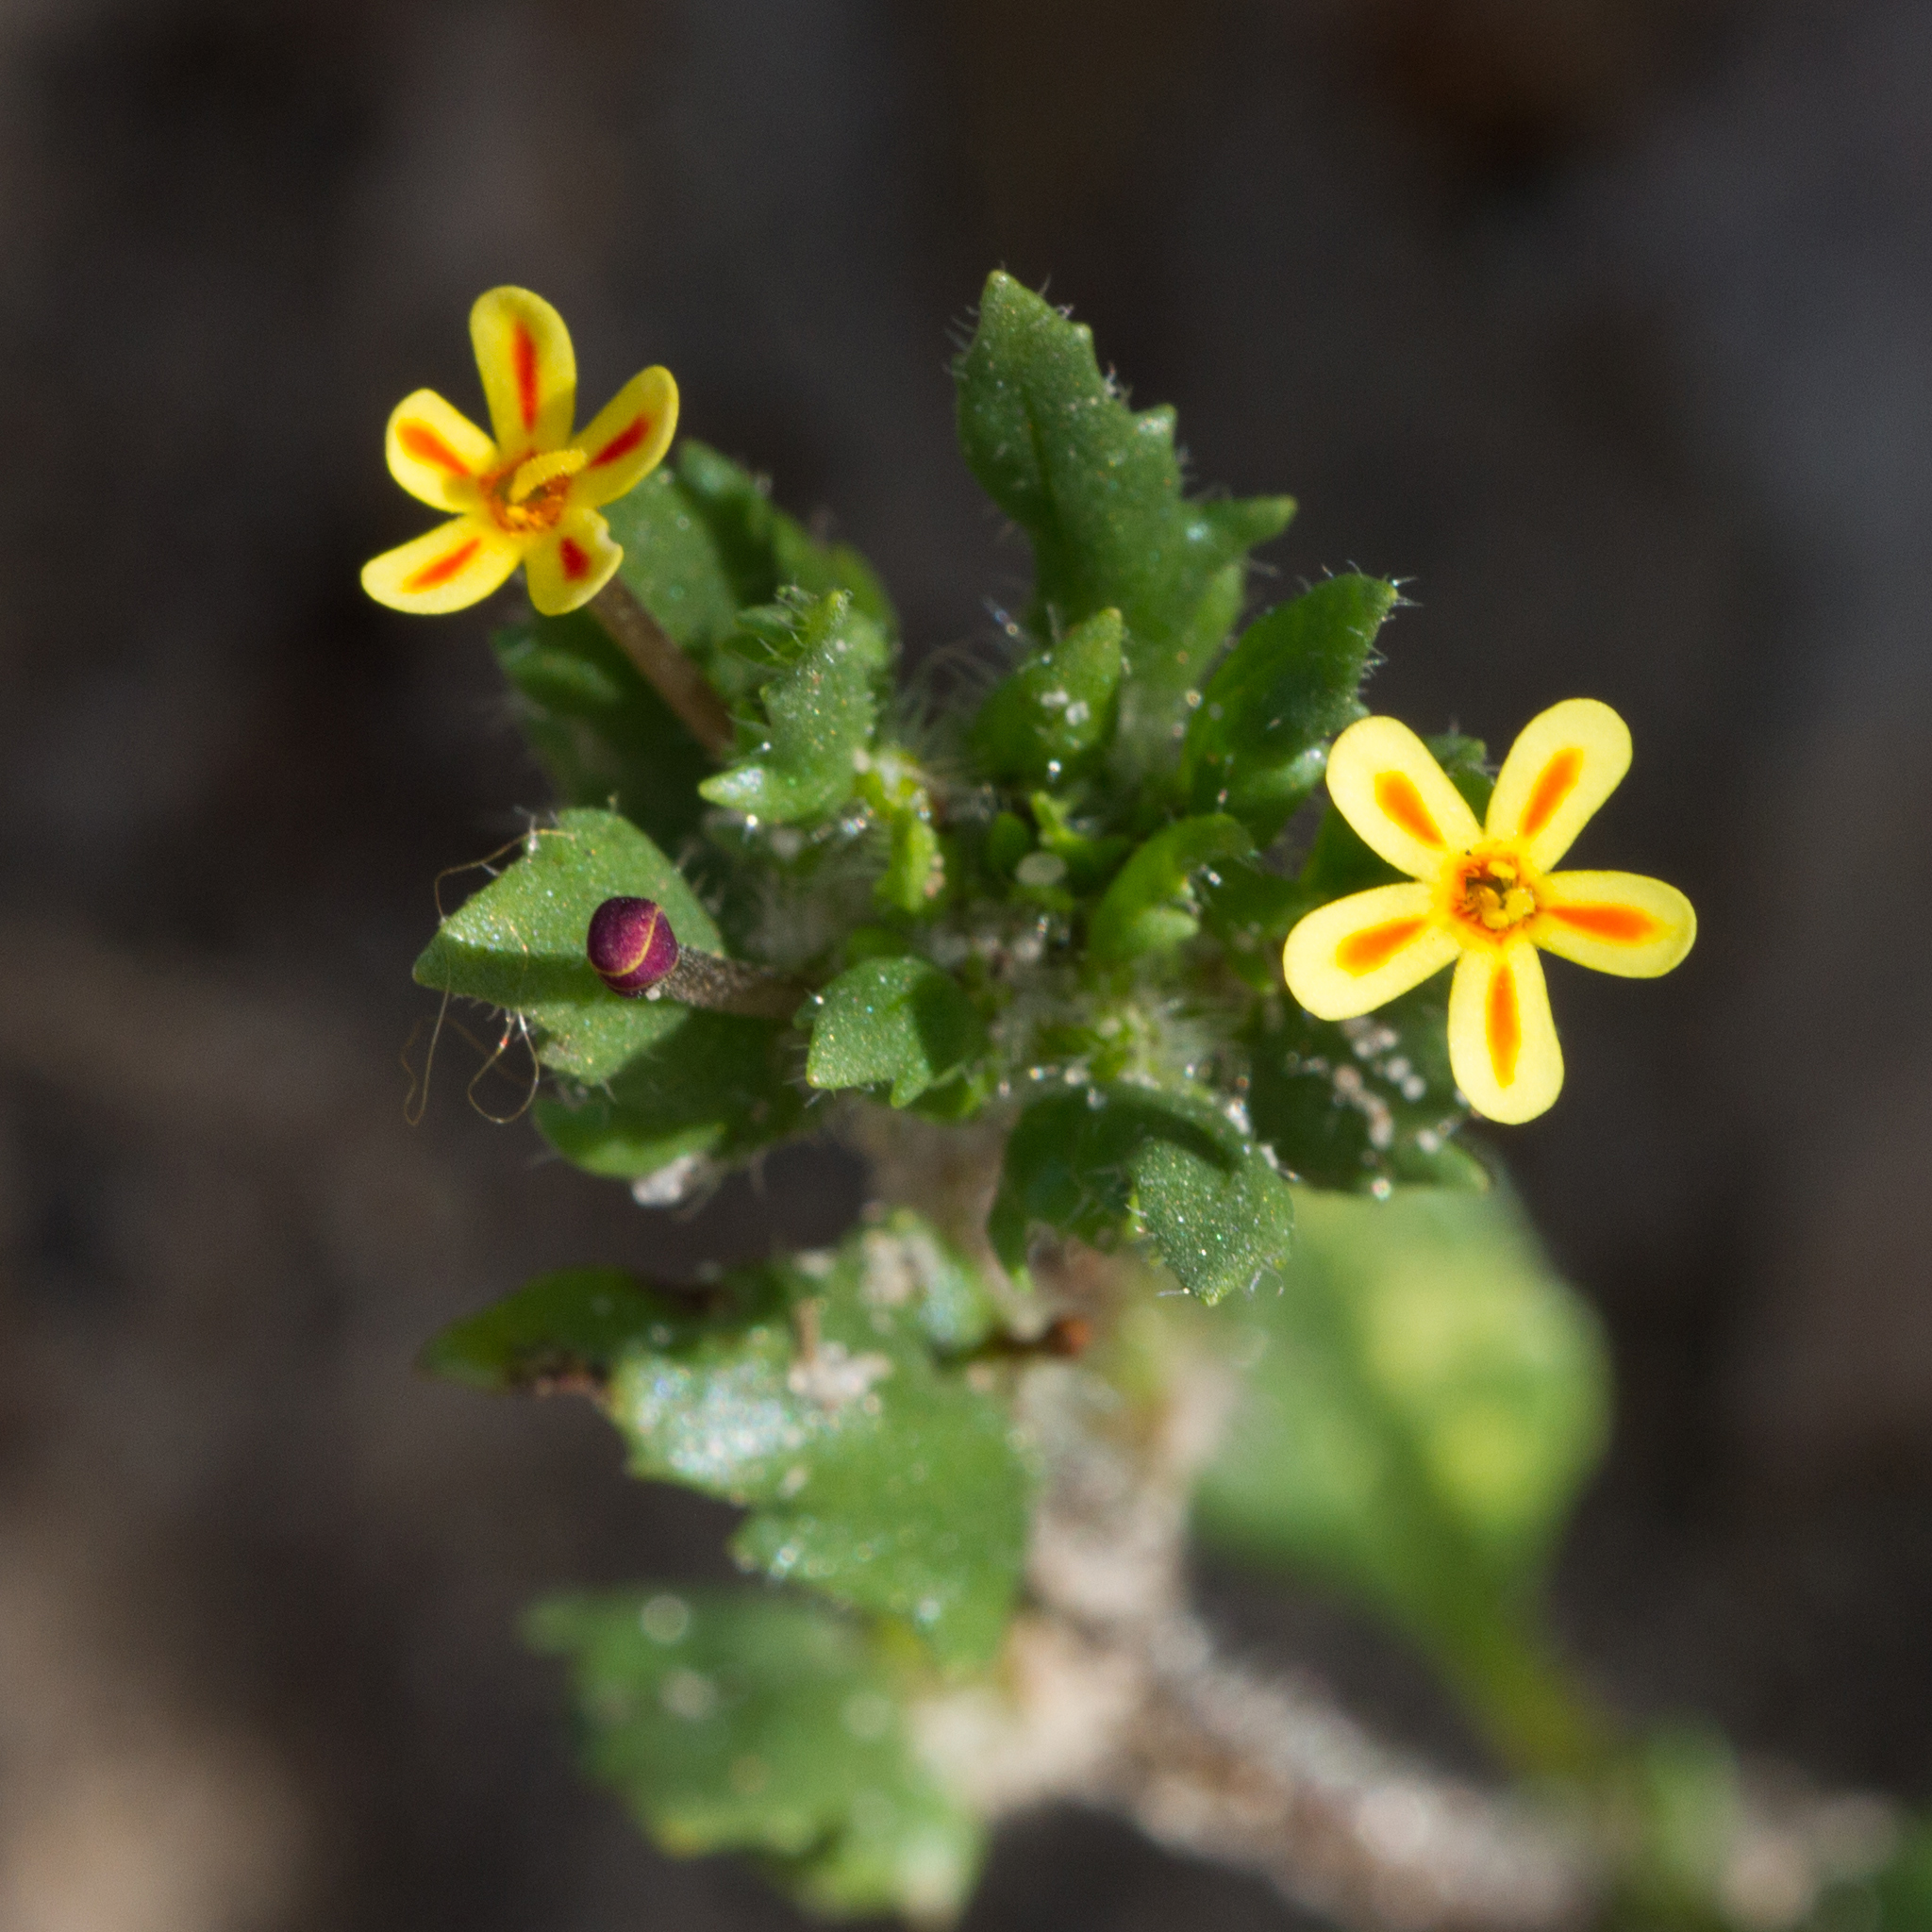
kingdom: Plantae
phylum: Tracheophyta
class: Magnoliopsida
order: Lamiales
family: Scrophulariaceae
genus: Zaluzianskya
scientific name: Zaluzianskya divaricata
